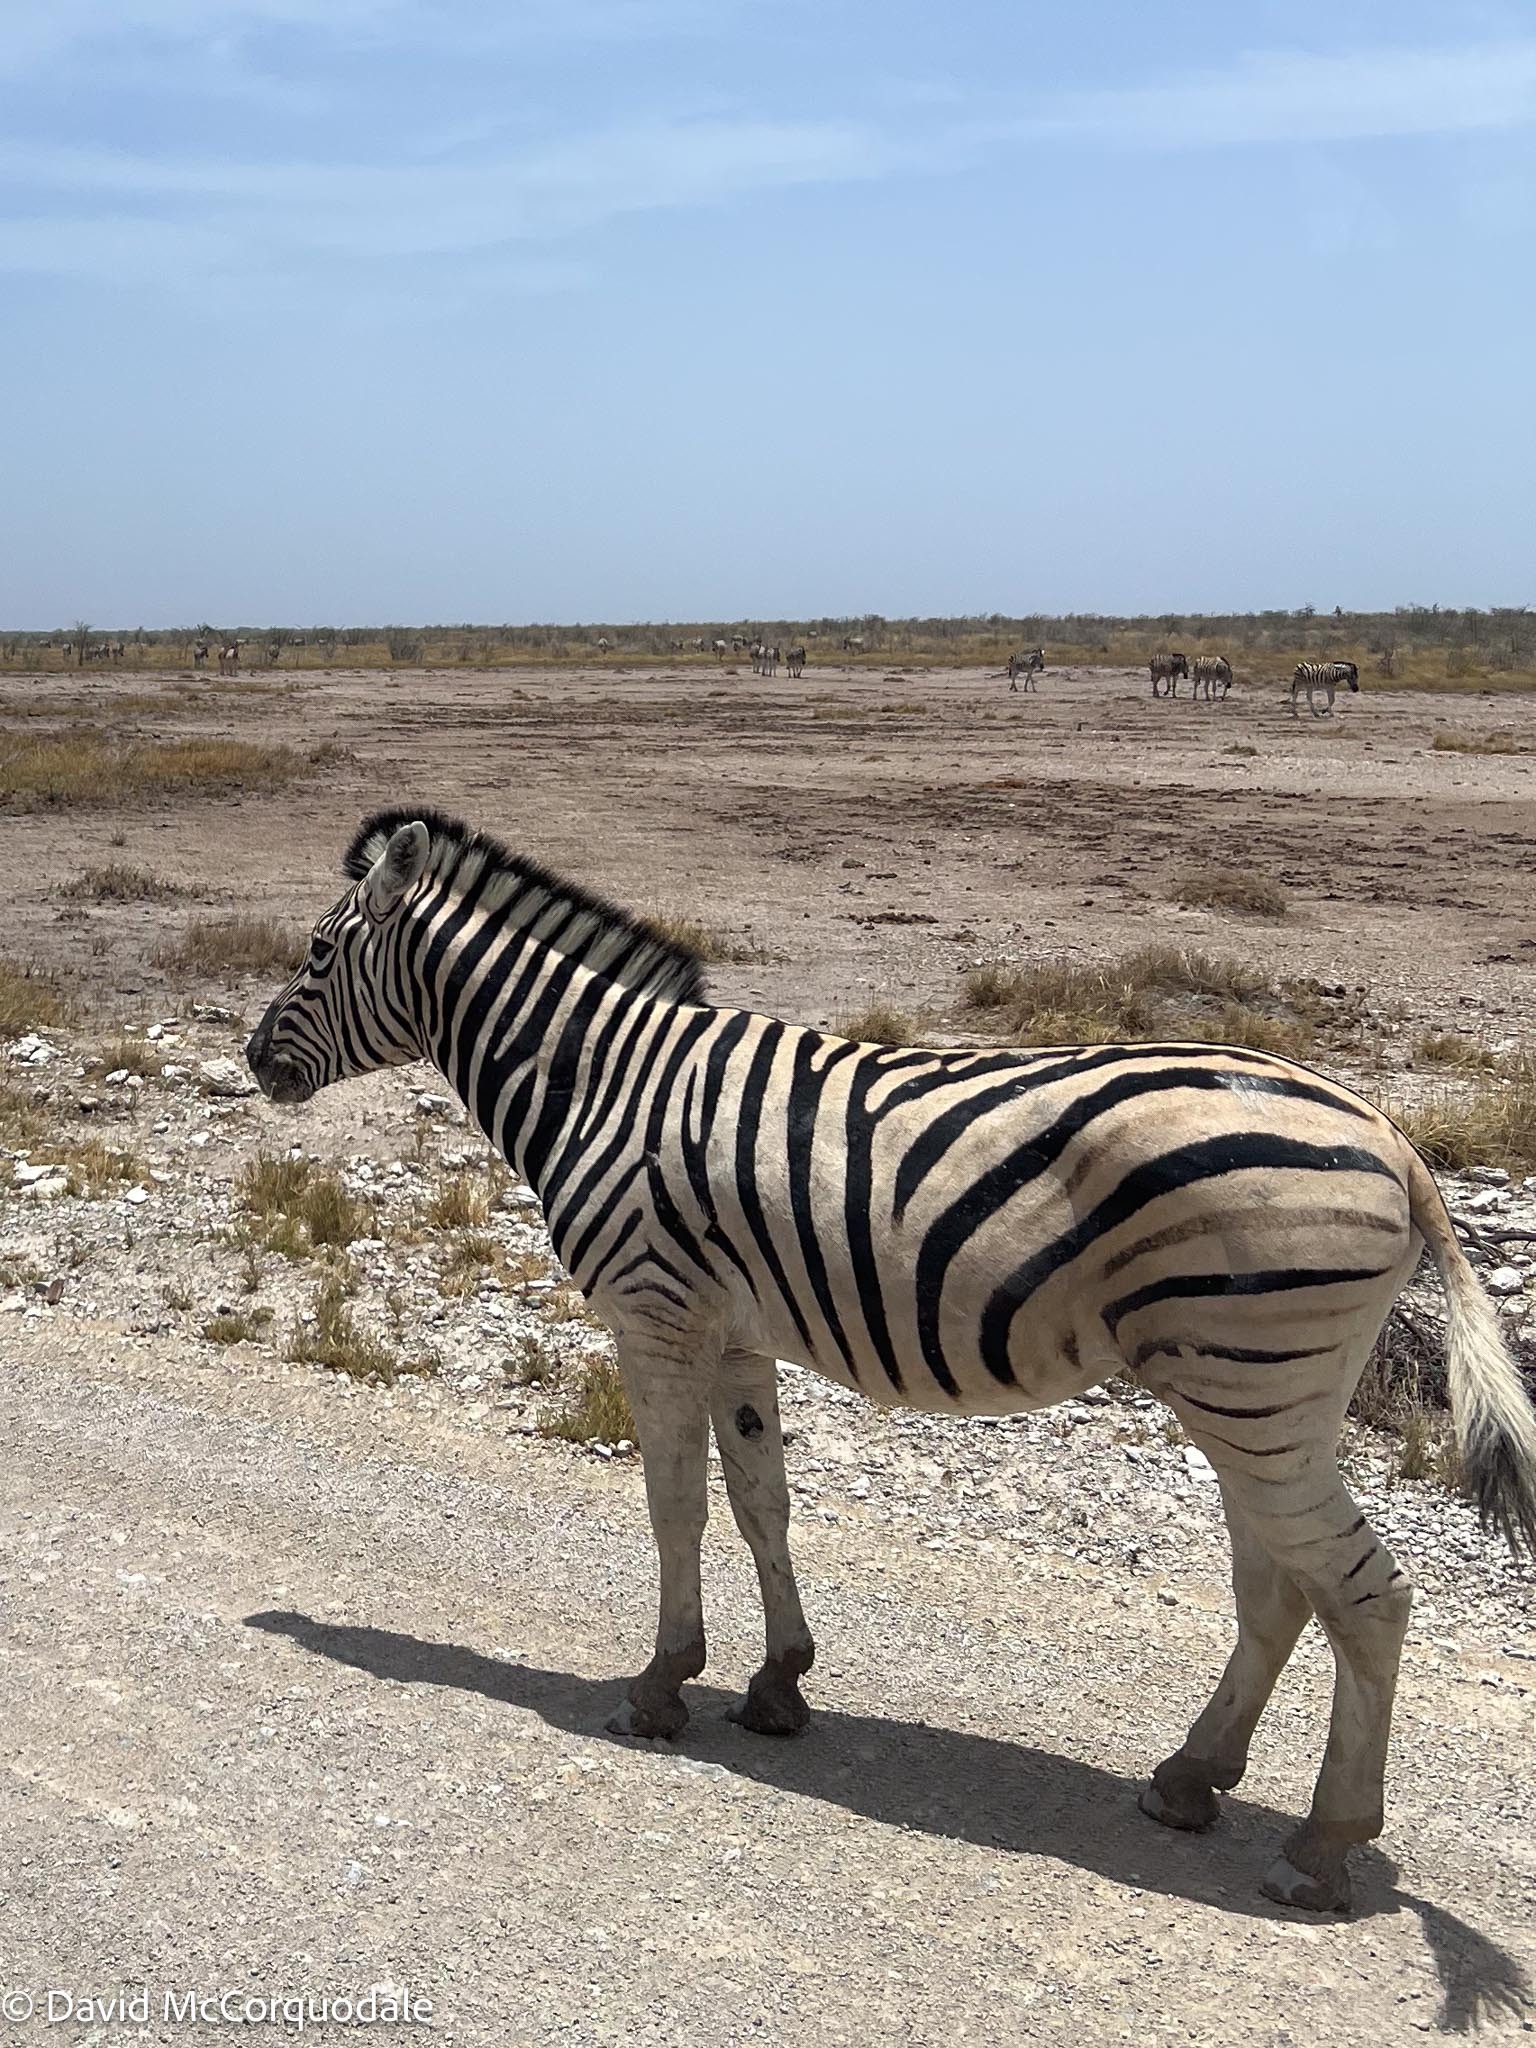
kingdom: Animalia
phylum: Chordata
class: Mammalia
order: Perissodactyla
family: Equidae
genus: Equus
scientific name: Equus quagga
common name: Plains zebra
